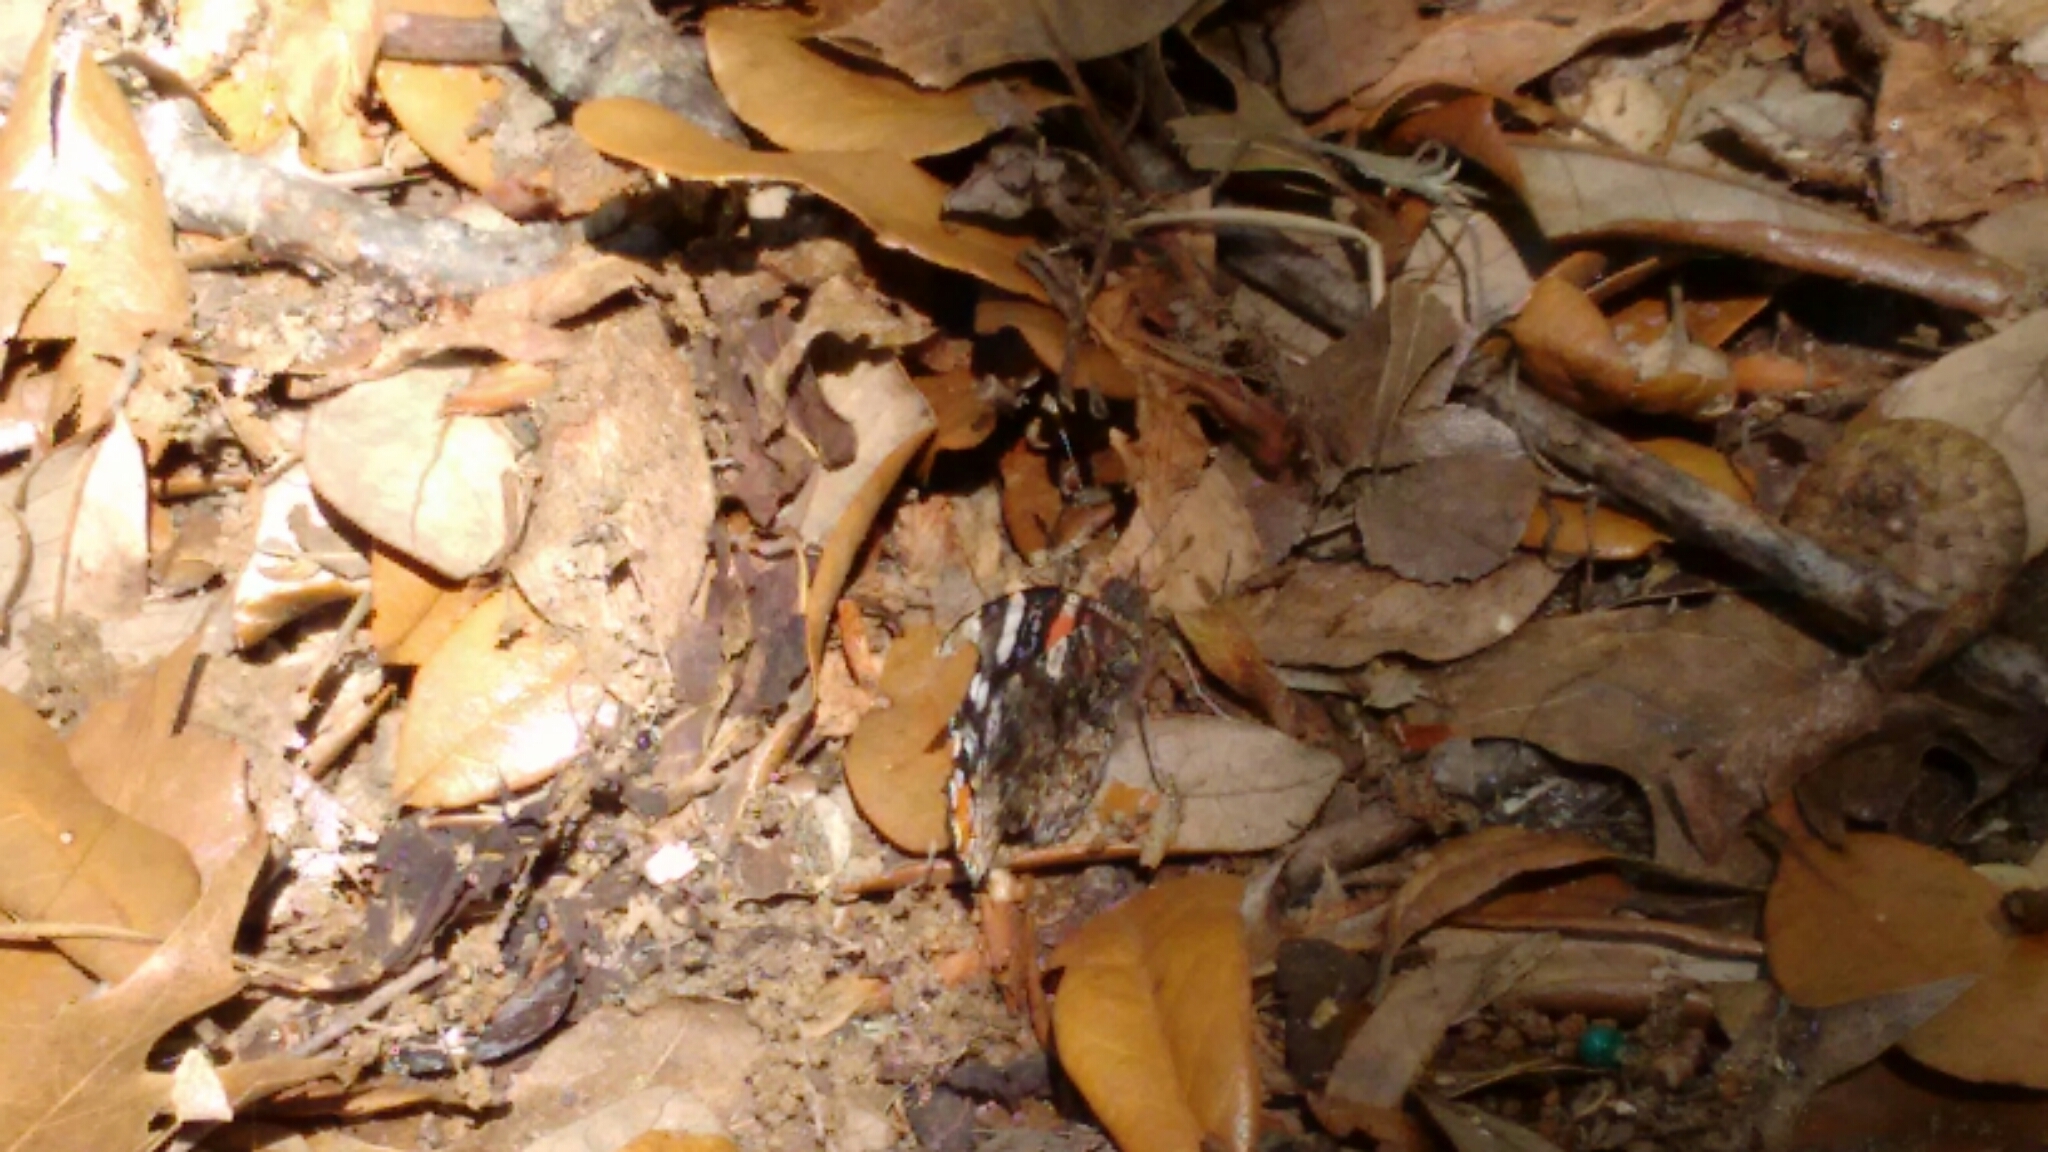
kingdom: Animalia
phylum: Arthropoda
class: Insecta
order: Lepidoptera
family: Nymphalidae
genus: Vanessa
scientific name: Vanessa atalanta
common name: Red admiral
